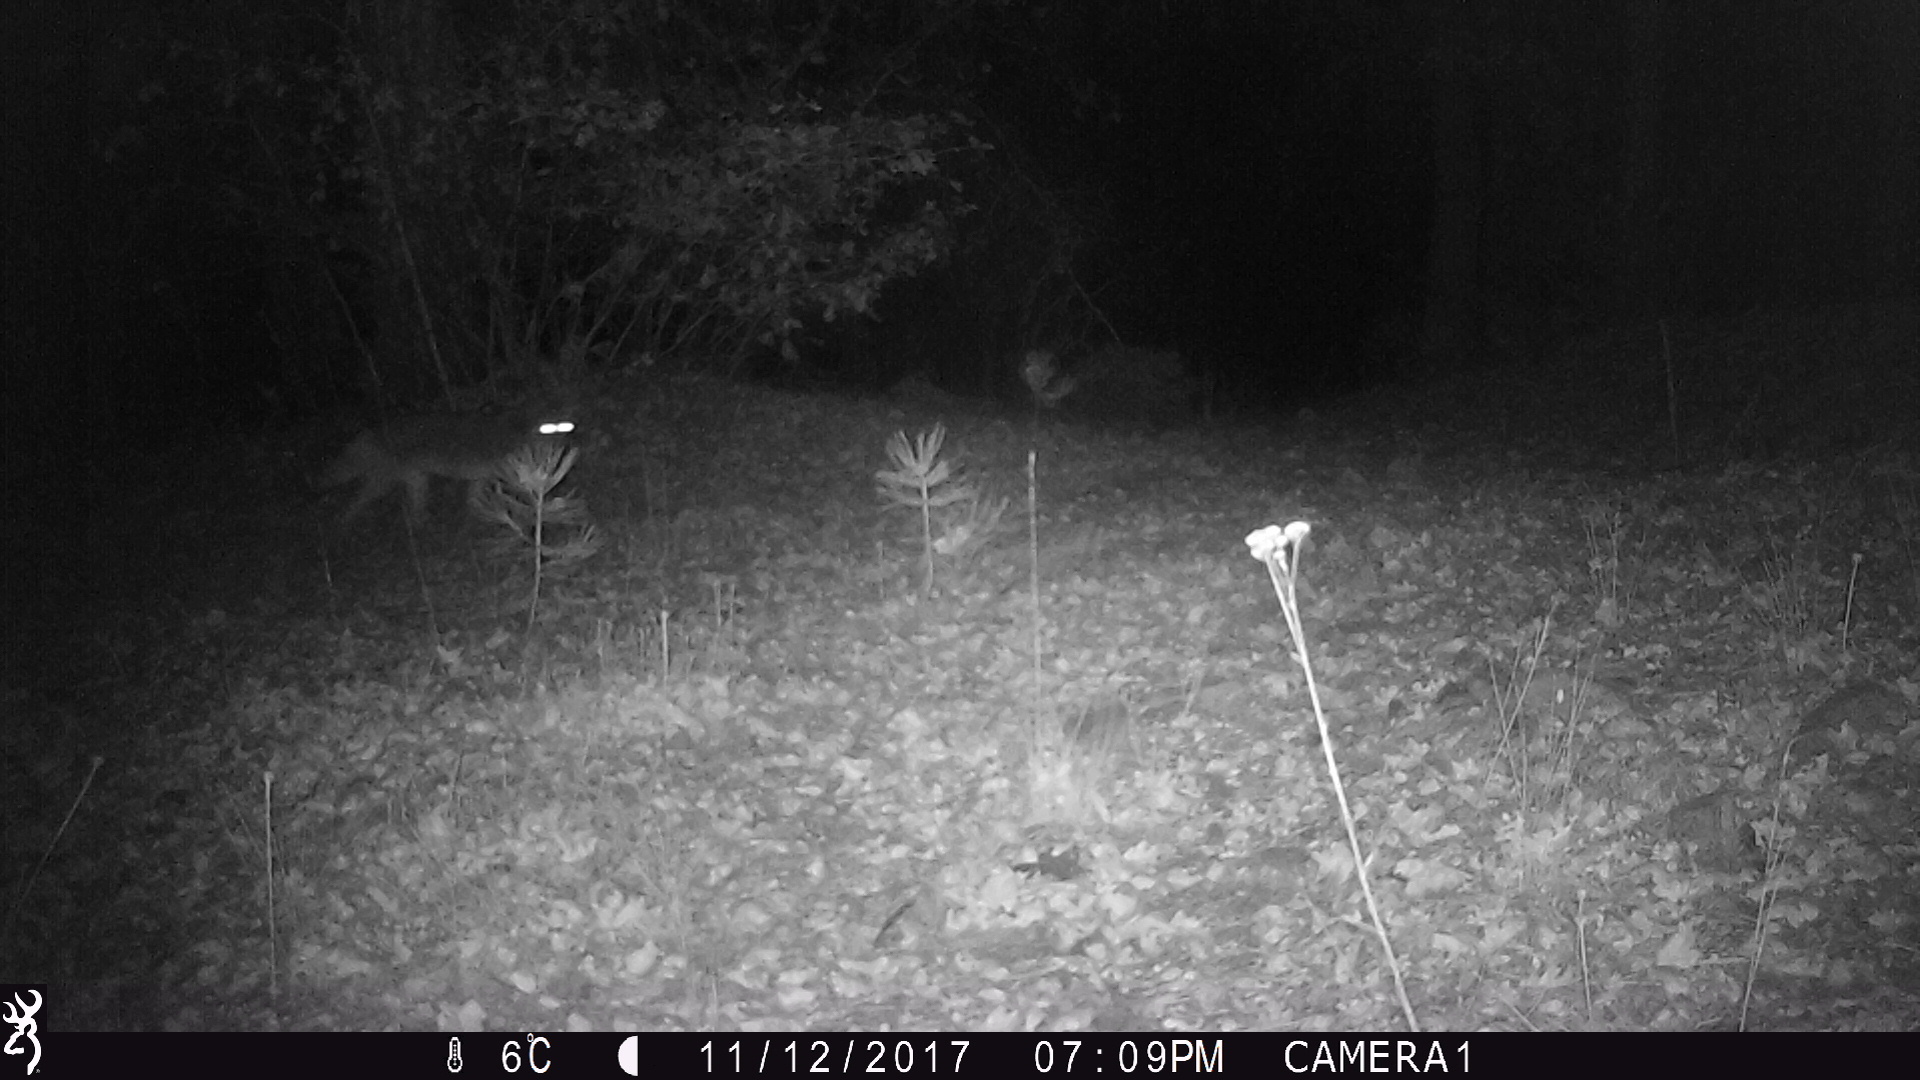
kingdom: Animalia
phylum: Chordata
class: Mammalia
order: Carnivora
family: Canidae
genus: Canis
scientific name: Canis latrans
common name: Coyote
